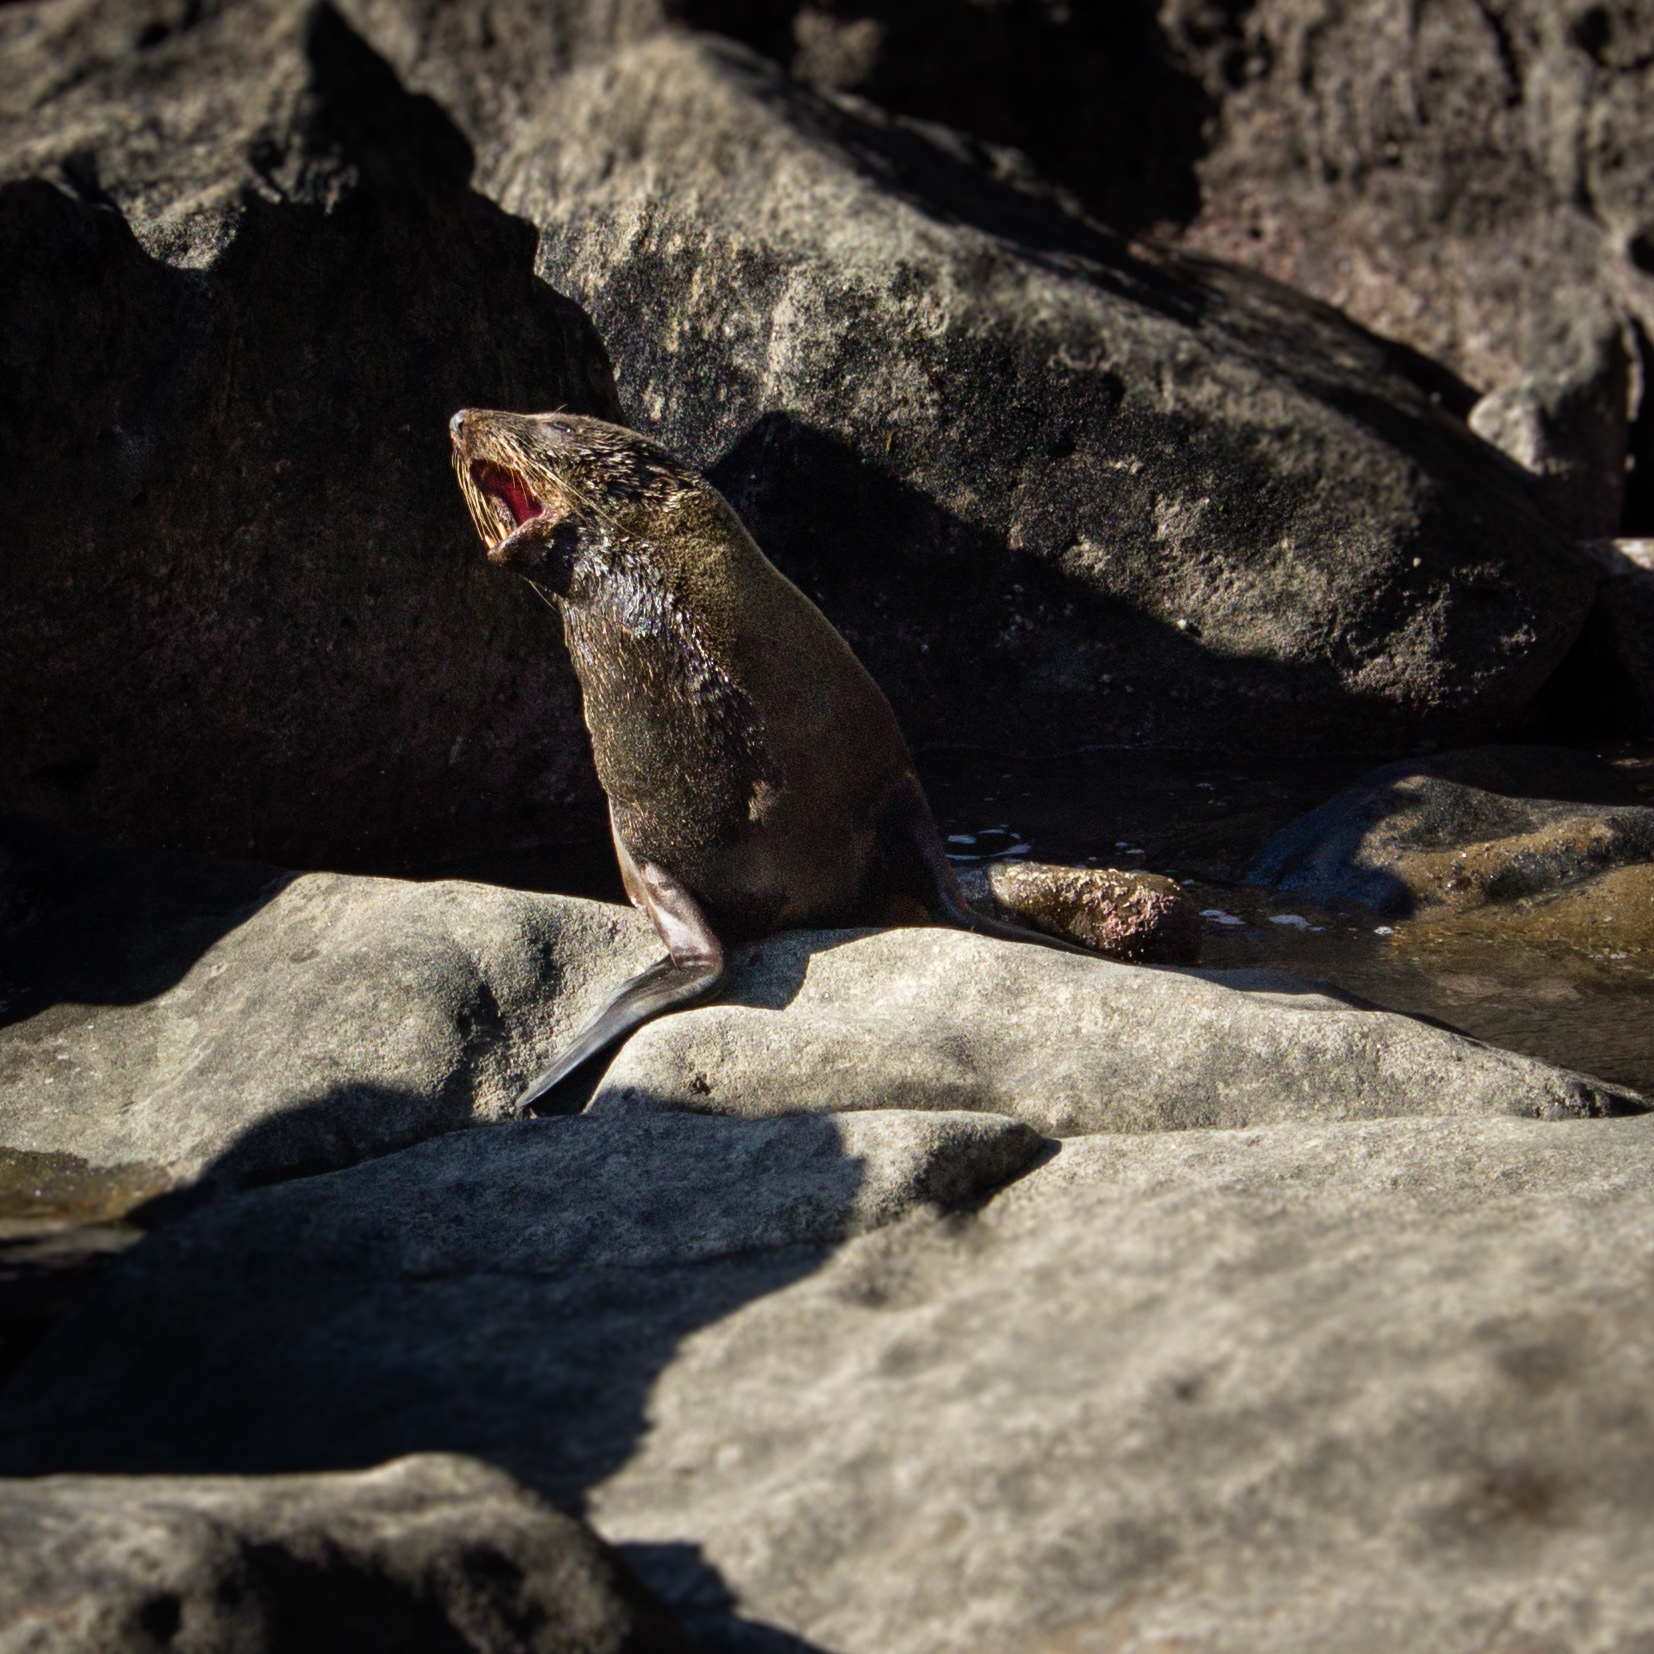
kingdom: Animalia
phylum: Chordata
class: Mammalia
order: Carnivora
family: Otariidae
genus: Arctocephalus
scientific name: Arctocephalus forsteri
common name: New zealand fur seal
